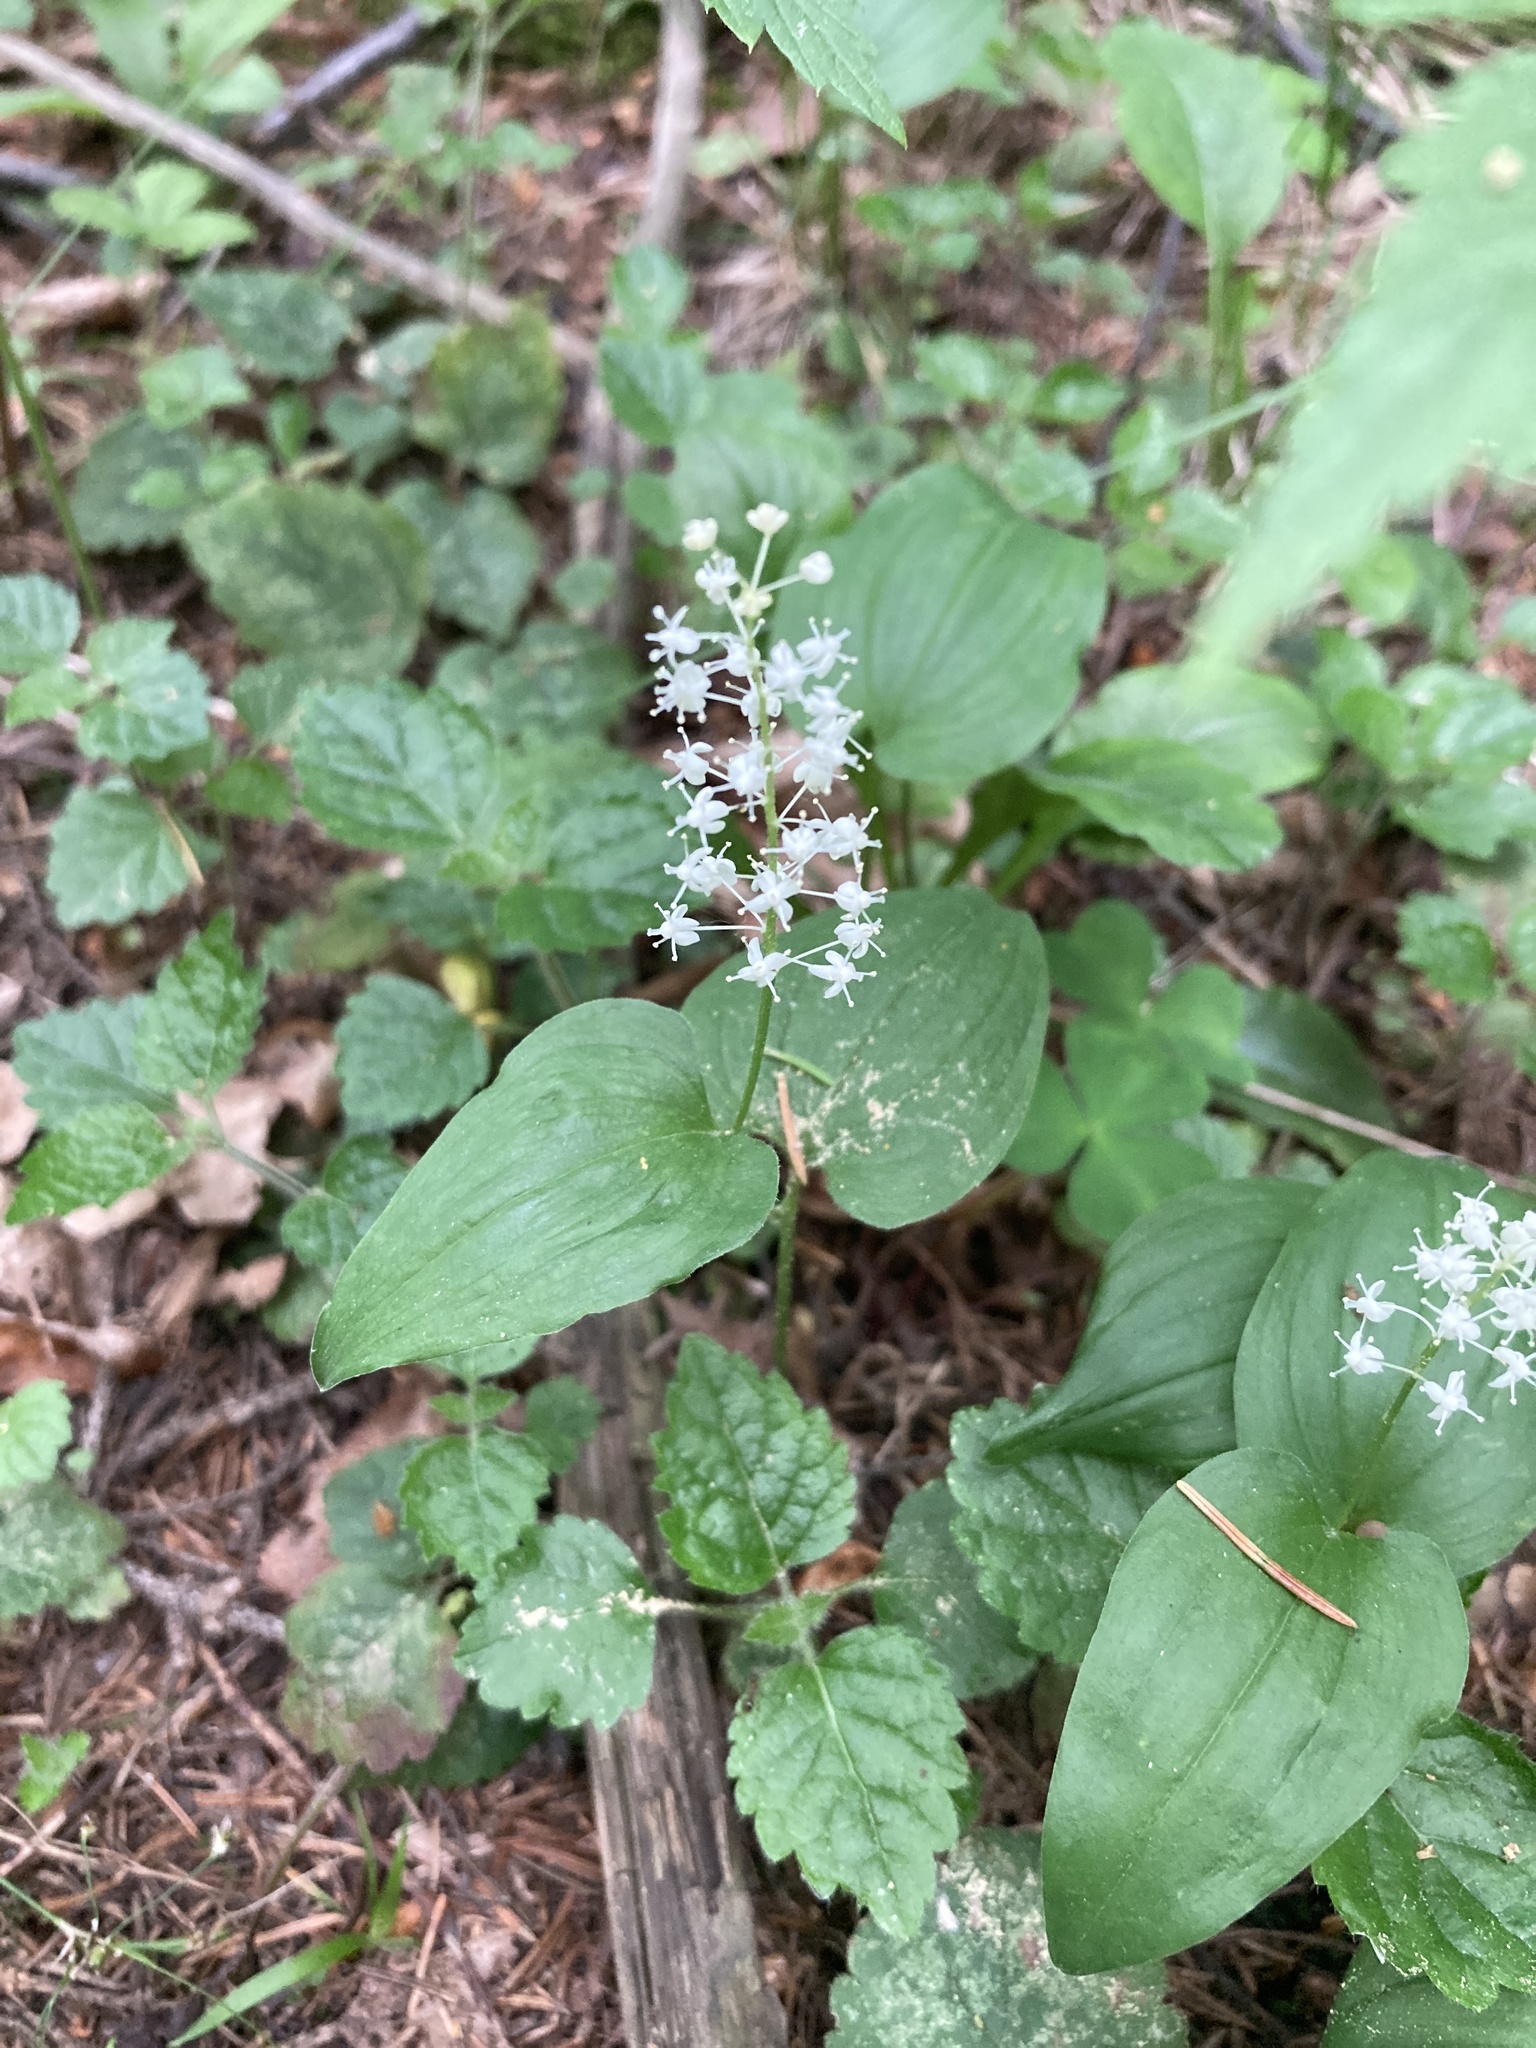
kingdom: Plantae
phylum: Tracheophyta
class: Liliopsida
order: Asparagales
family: Asparagaceae
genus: Maianthemum
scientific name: Maianthemum bifolium
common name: May lily
